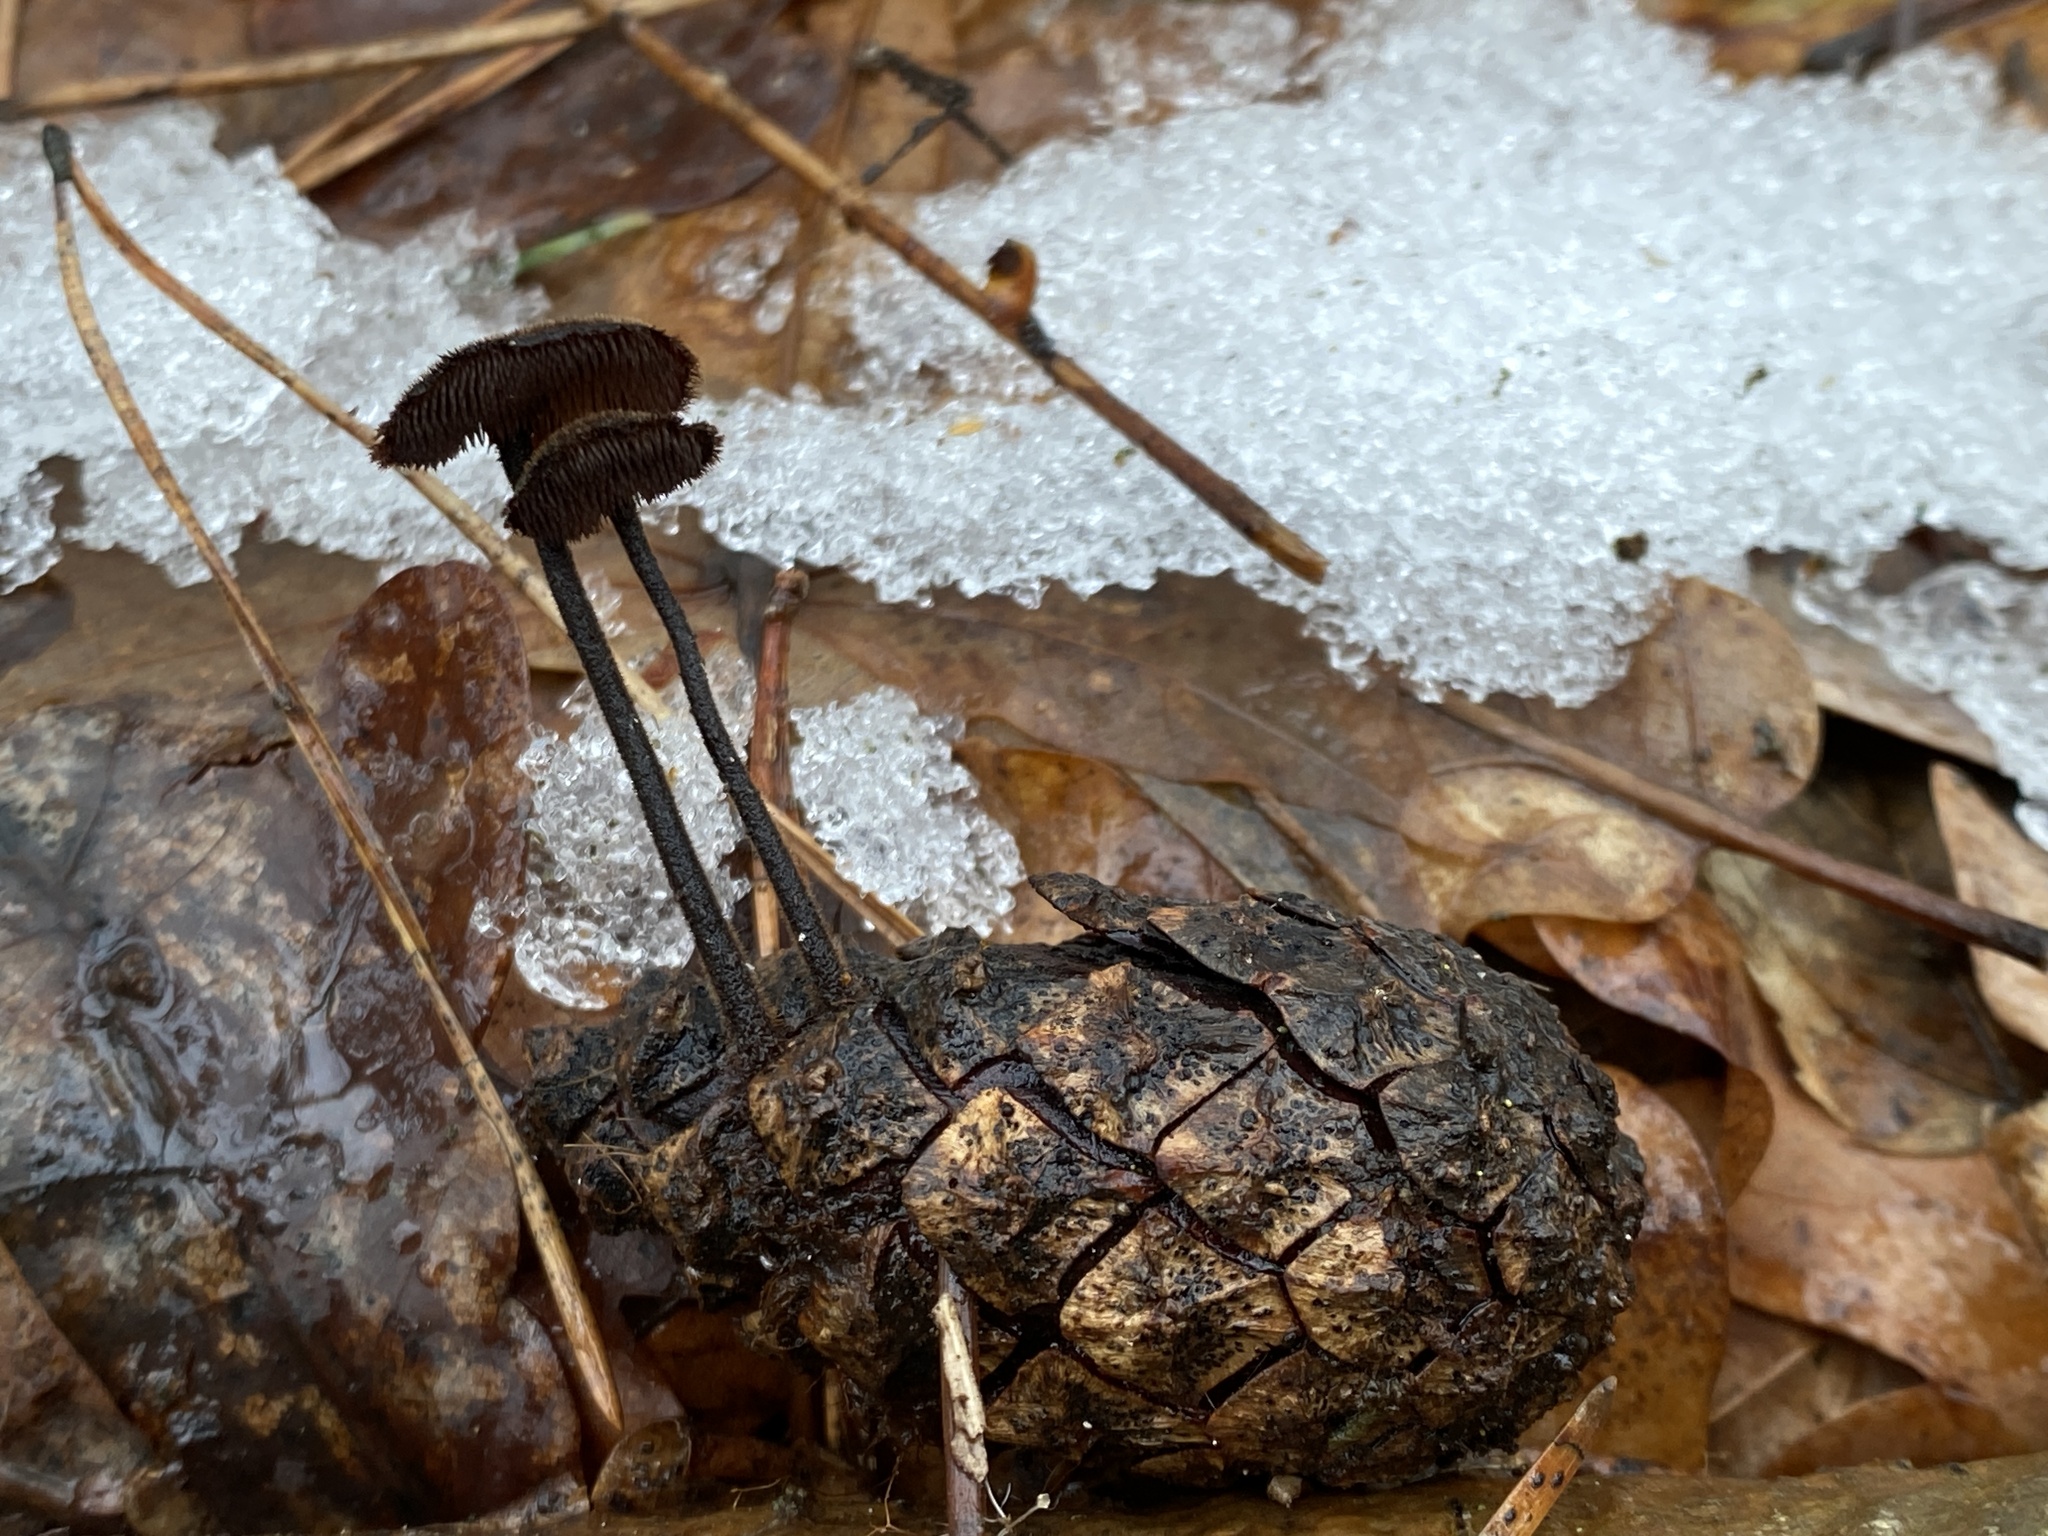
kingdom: Fungi
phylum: Basidiomycota
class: Agaricomycetes
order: Russulales
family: Auriscalpiaceae
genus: Auriscalpium
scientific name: Auriscalpium vulgare
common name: Earpick fungus
